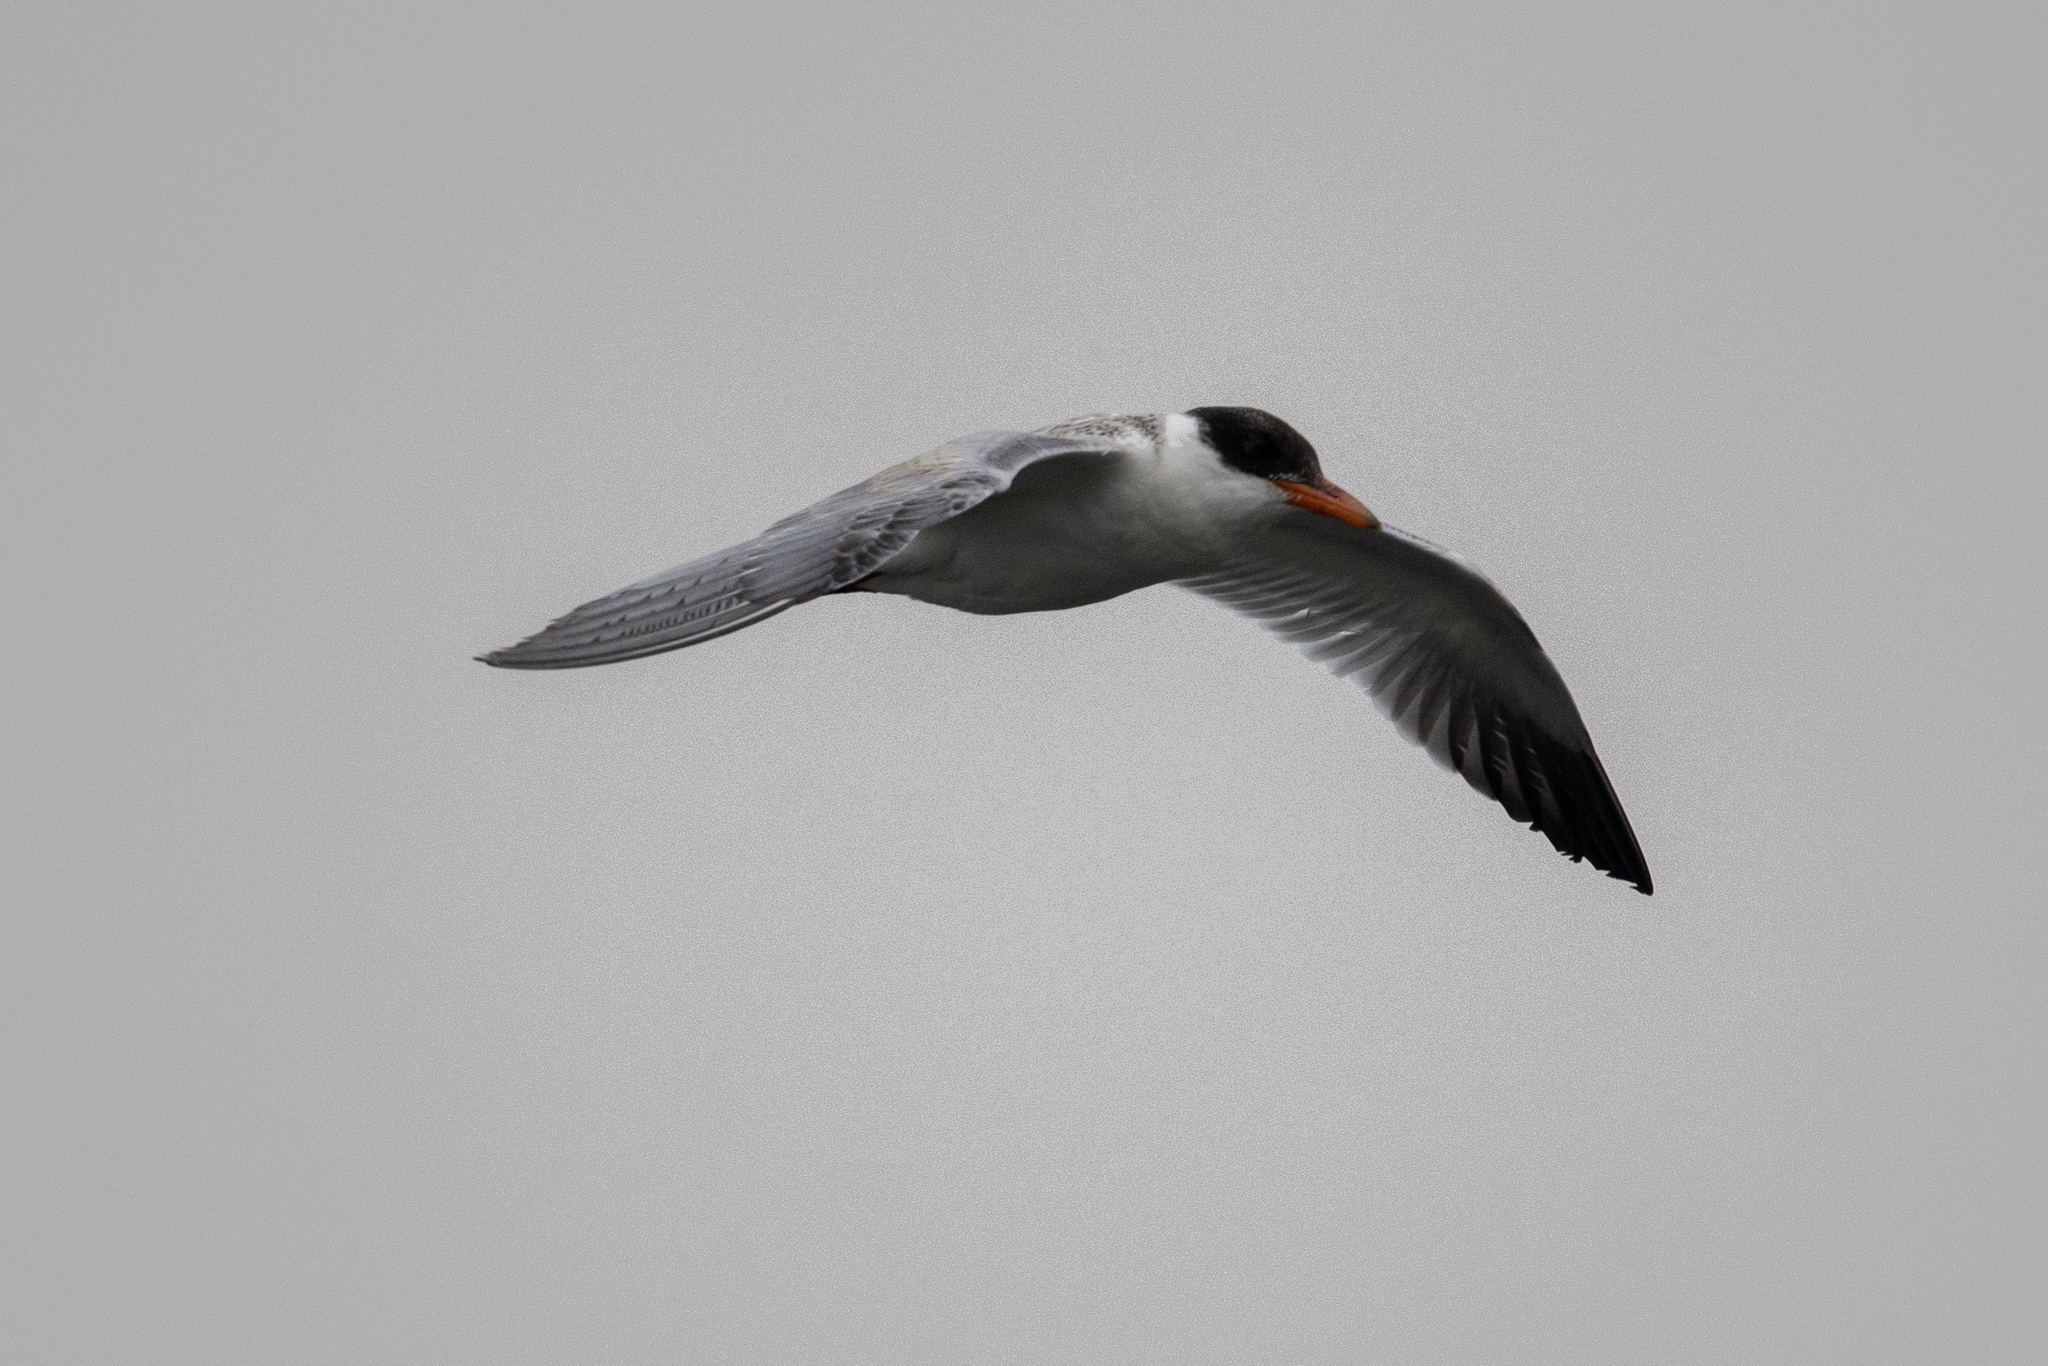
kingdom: Animalia
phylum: Chordata
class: Aves
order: Charadriiformes
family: Laridae
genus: Hydroprogne
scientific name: Hydroprogne caspia
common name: Caspian tern
